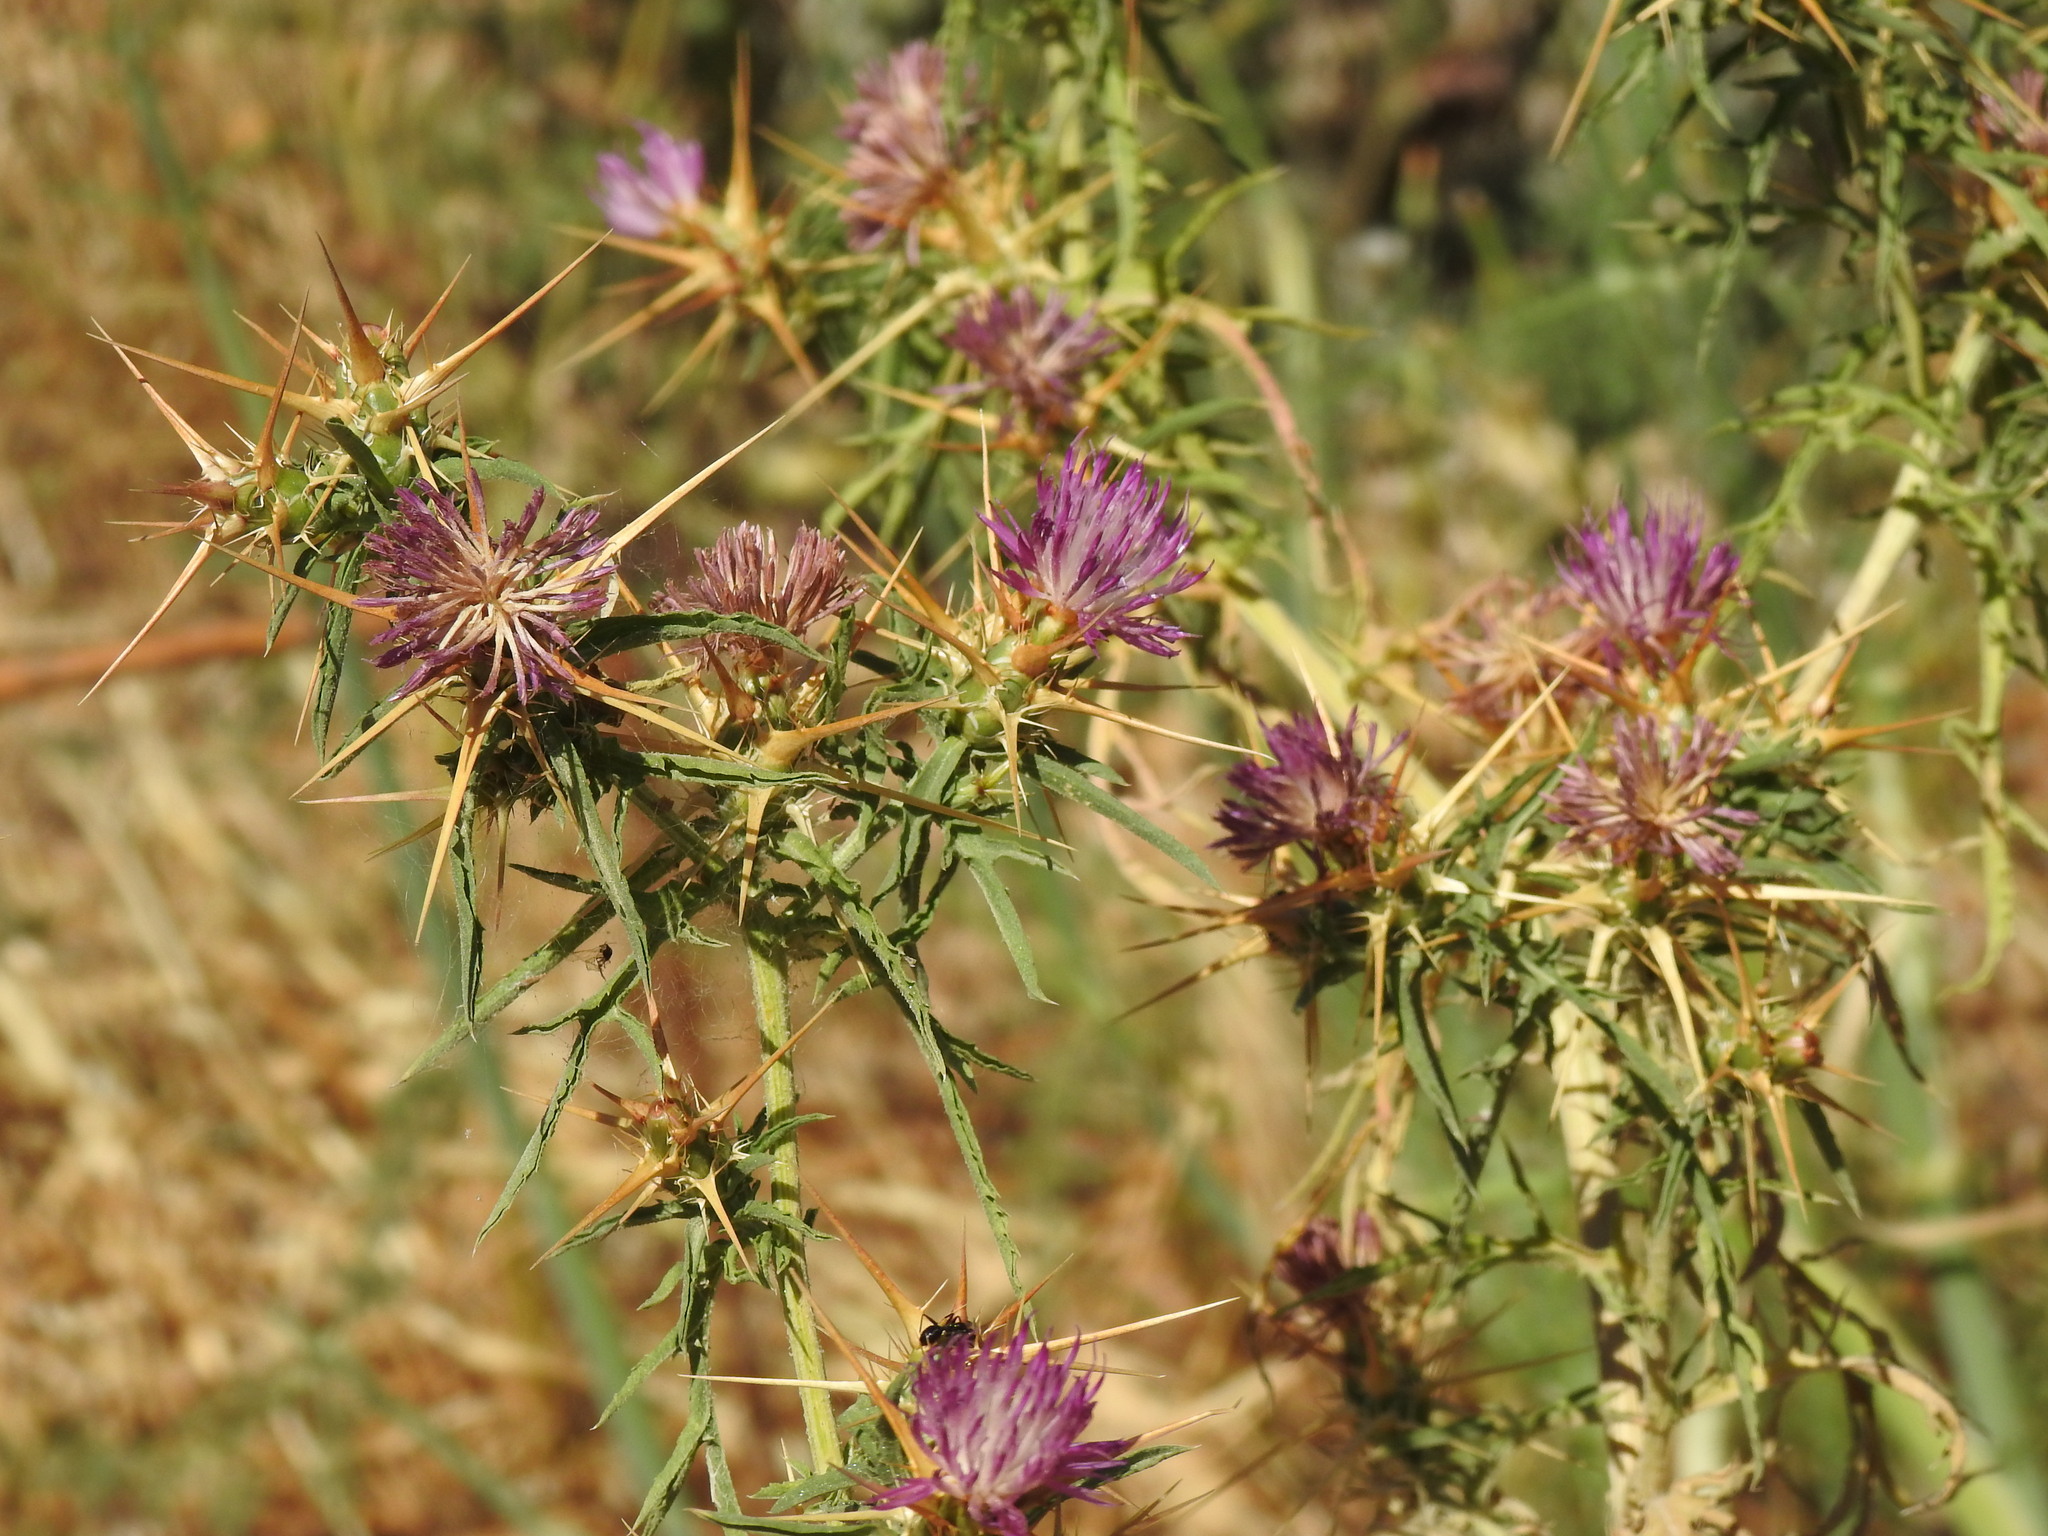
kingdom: Plantae
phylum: Tracheophyta
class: Magnoliopsida
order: Asterales
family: Asteraceae
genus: Centaurea
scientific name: Centaurea calcitrapa
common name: Red star-thistle
